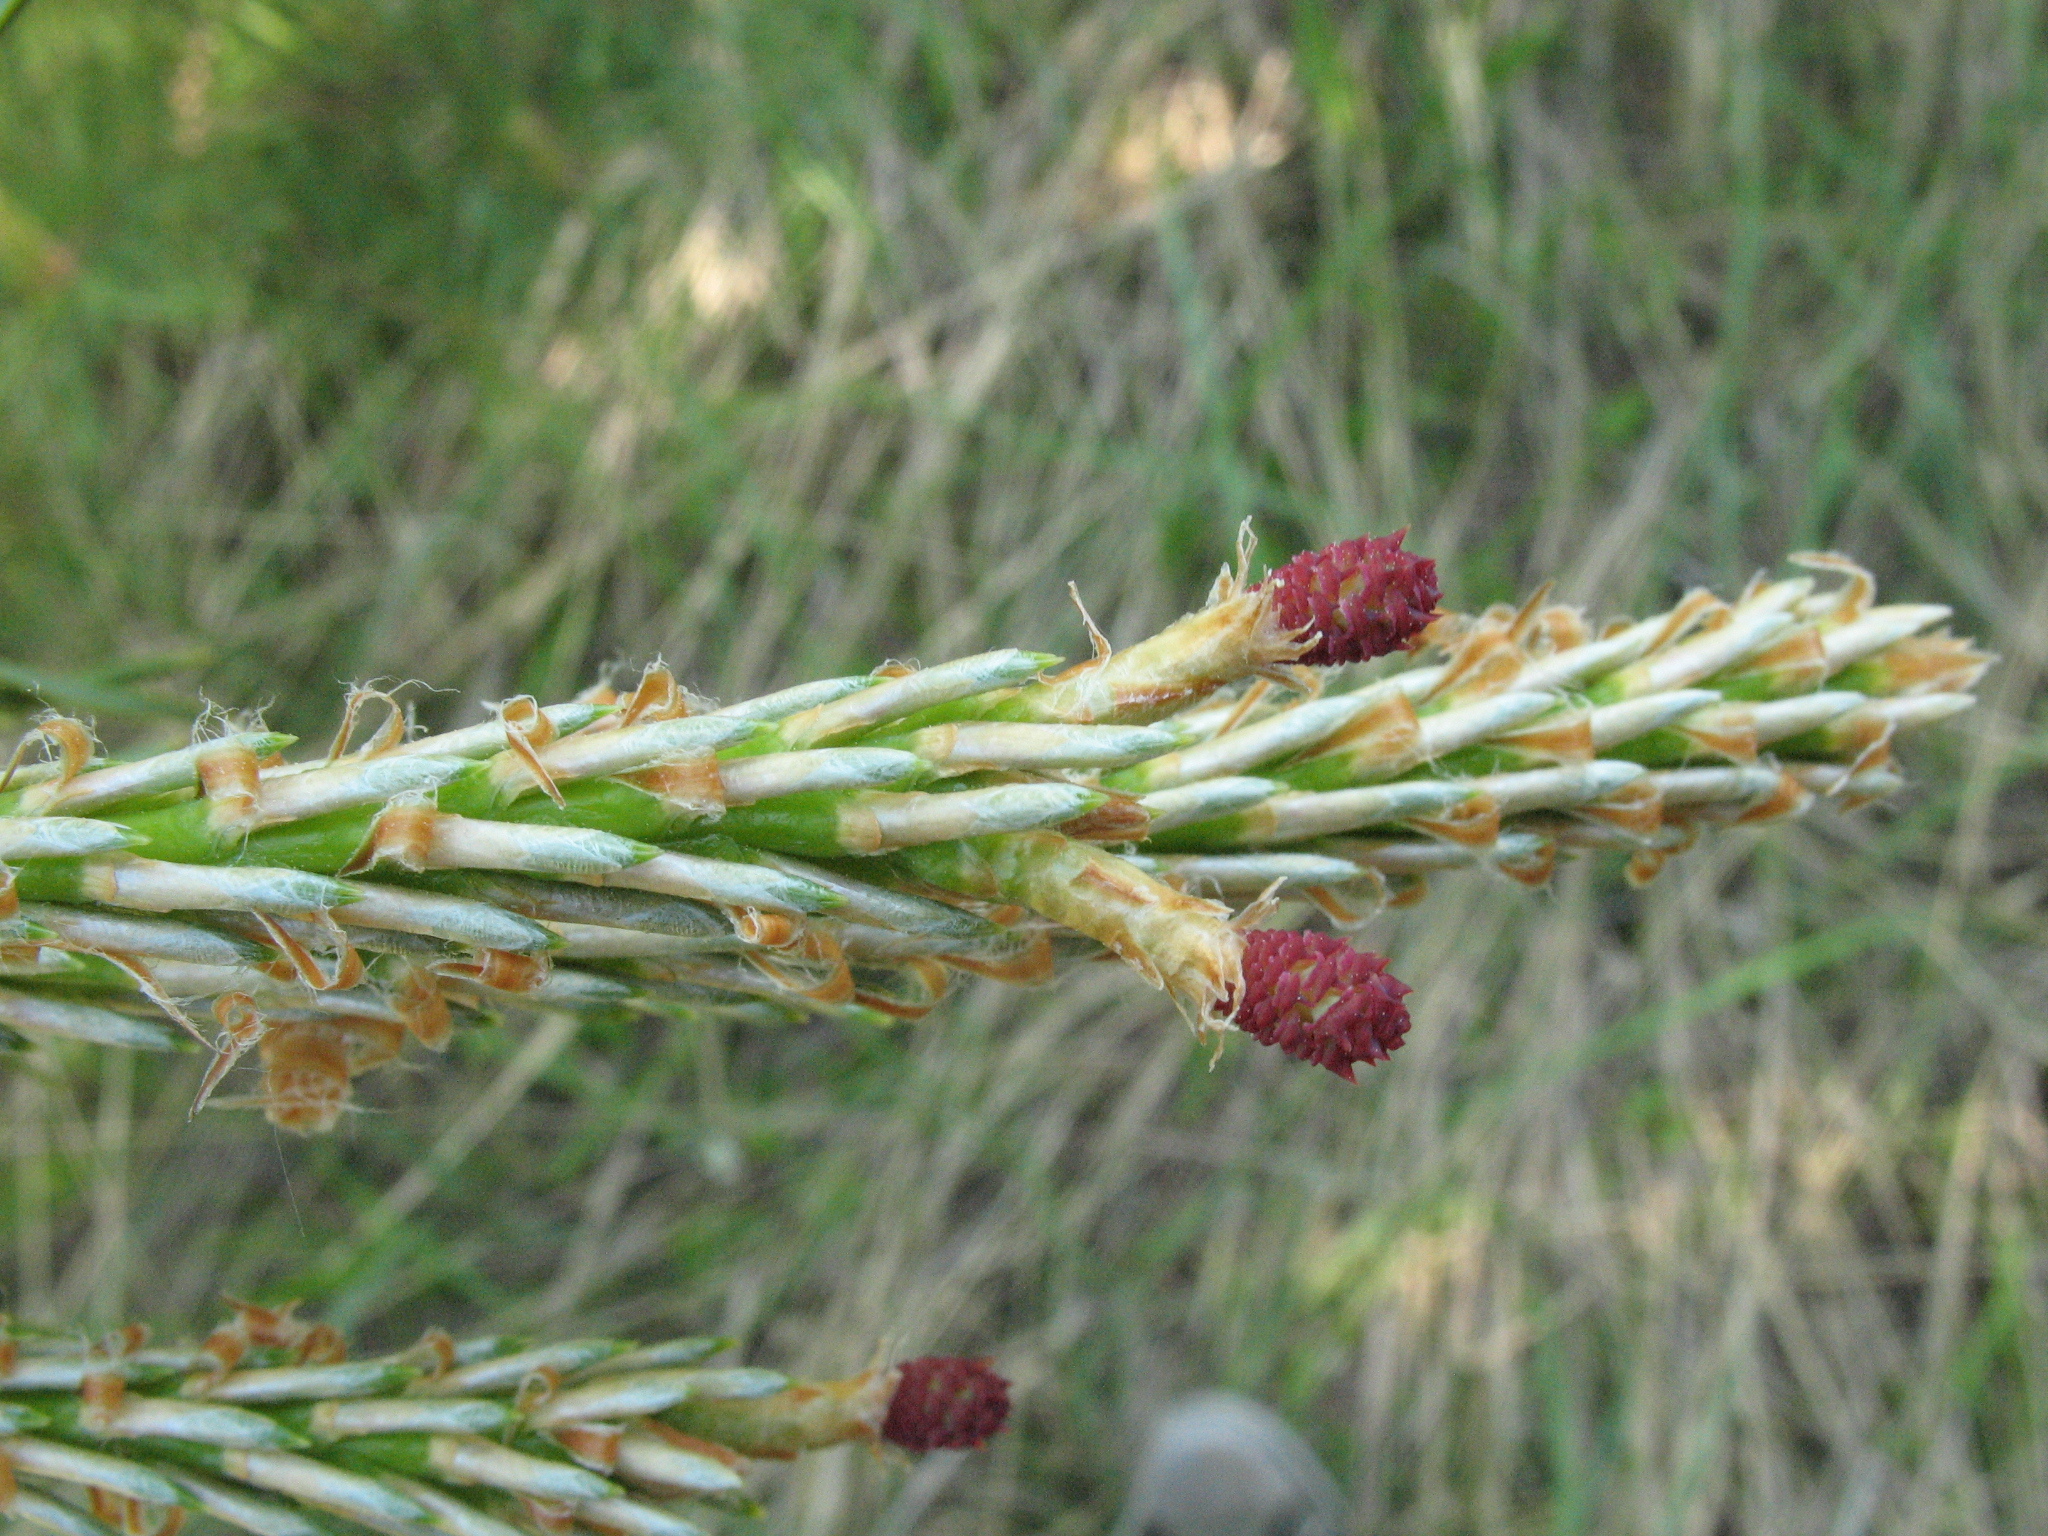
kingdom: Plantae
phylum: Tracheophyta
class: Pinopsida
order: Pinales
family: Pinaceae
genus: Pinus
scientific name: Pinus sylvestris
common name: Scots pine
